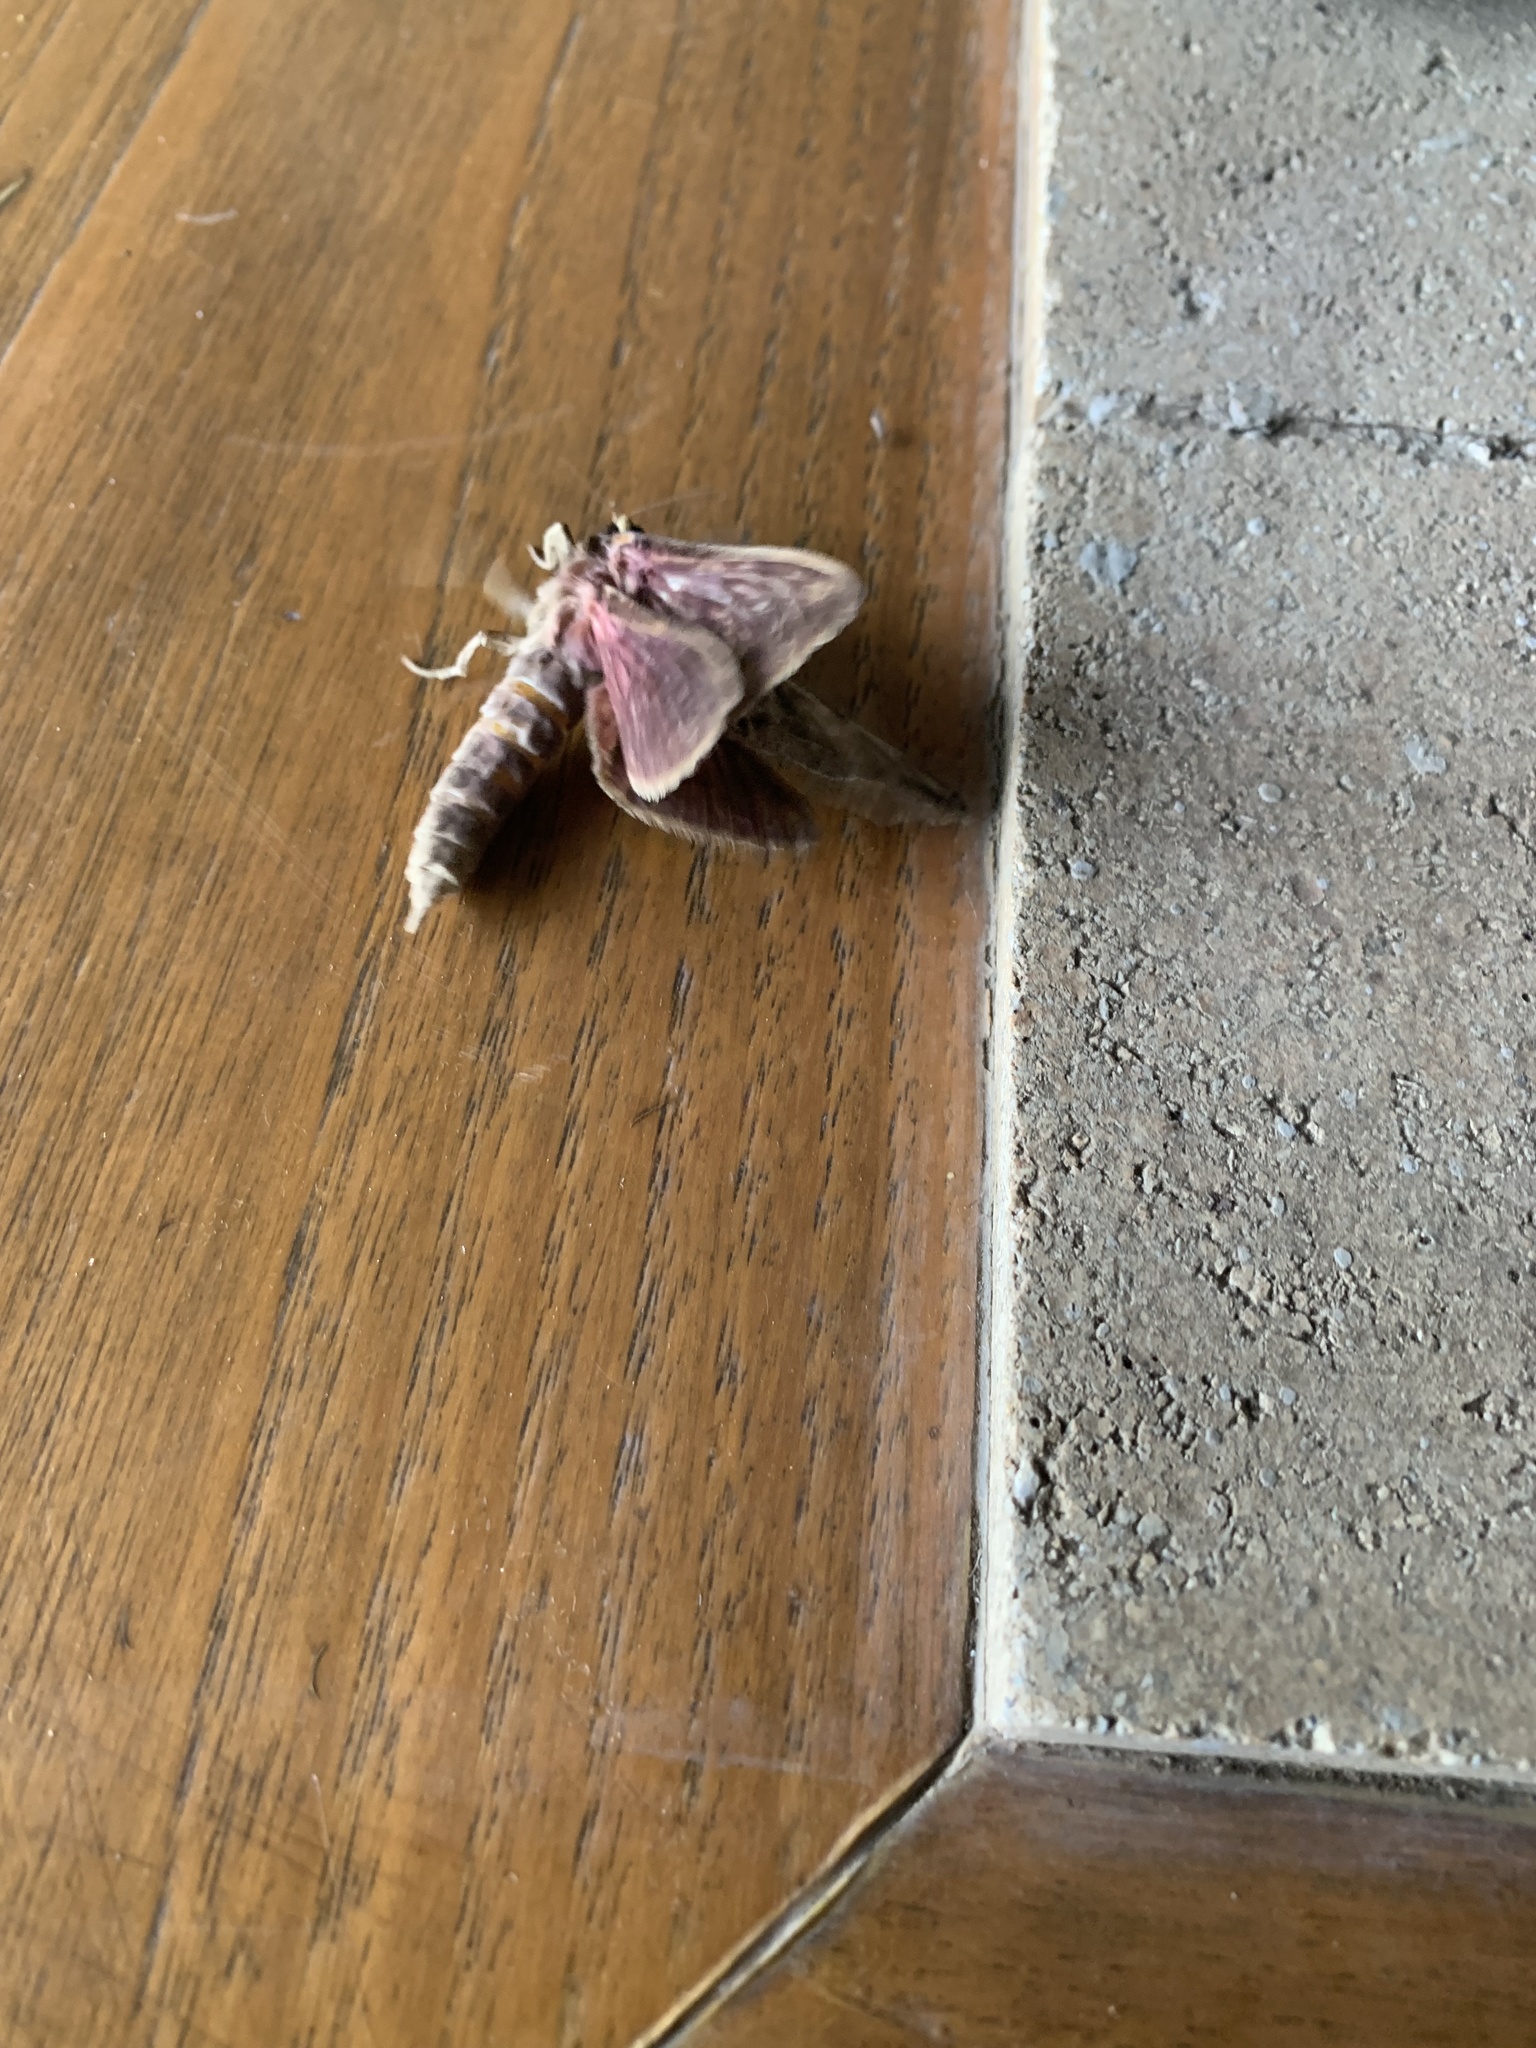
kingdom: Animalia
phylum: Arthropoda
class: Insecta
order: Lepidoptera
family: Hepialidae
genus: Callipielus
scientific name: Callipielus arenosus
